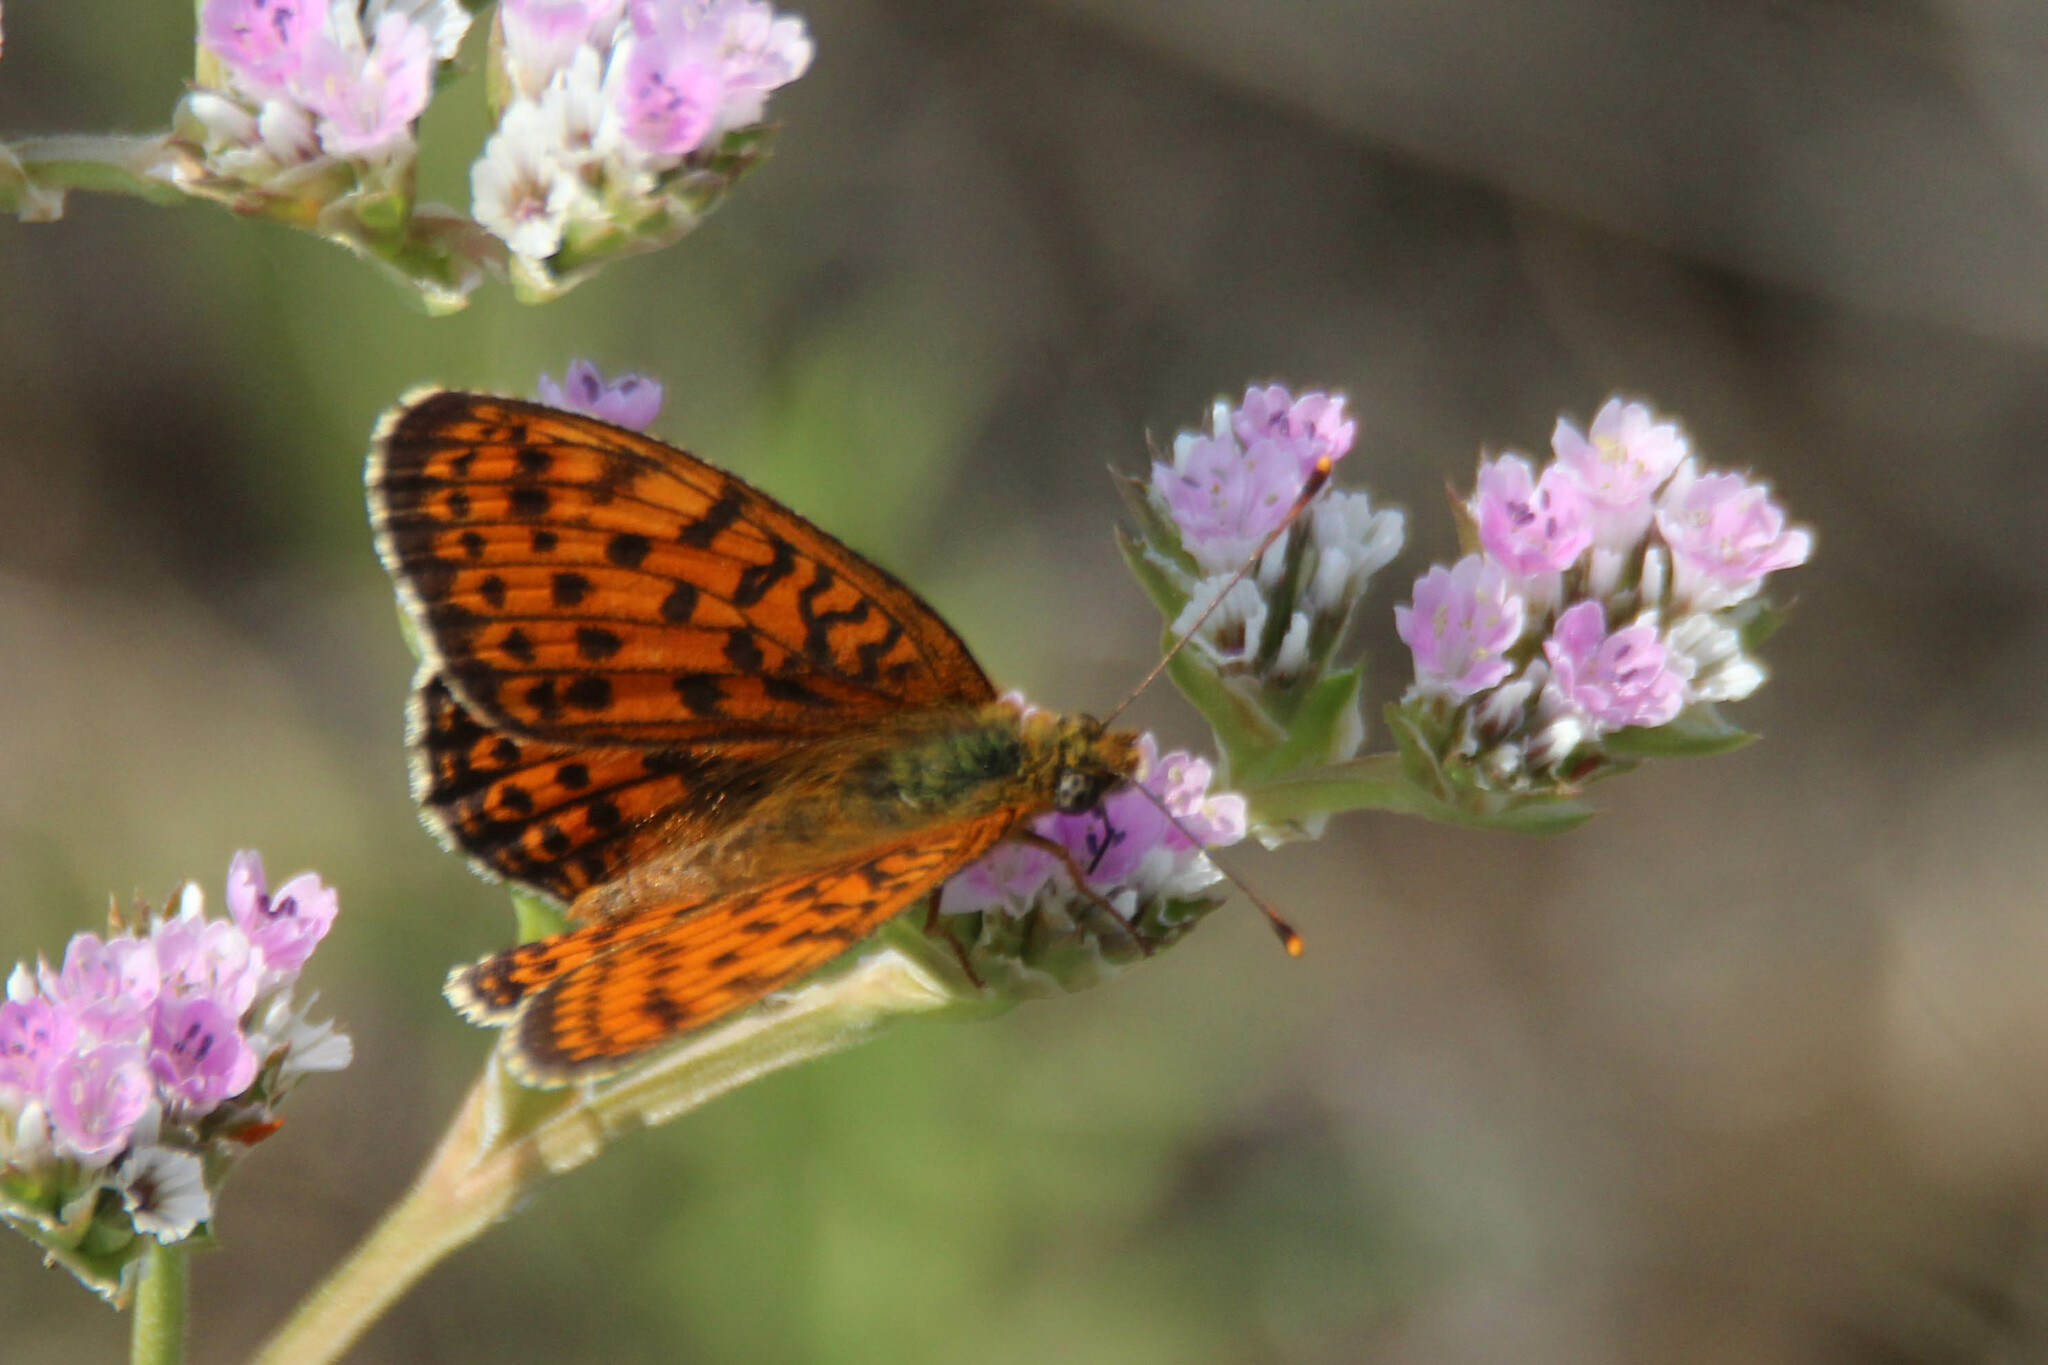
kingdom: Animalia
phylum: Arthropoda
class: Insecta
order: Lepidoptera
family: Nymphalidae
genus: Brenthis
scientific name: Brenthis ino
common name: Lesser marbled fritillary
